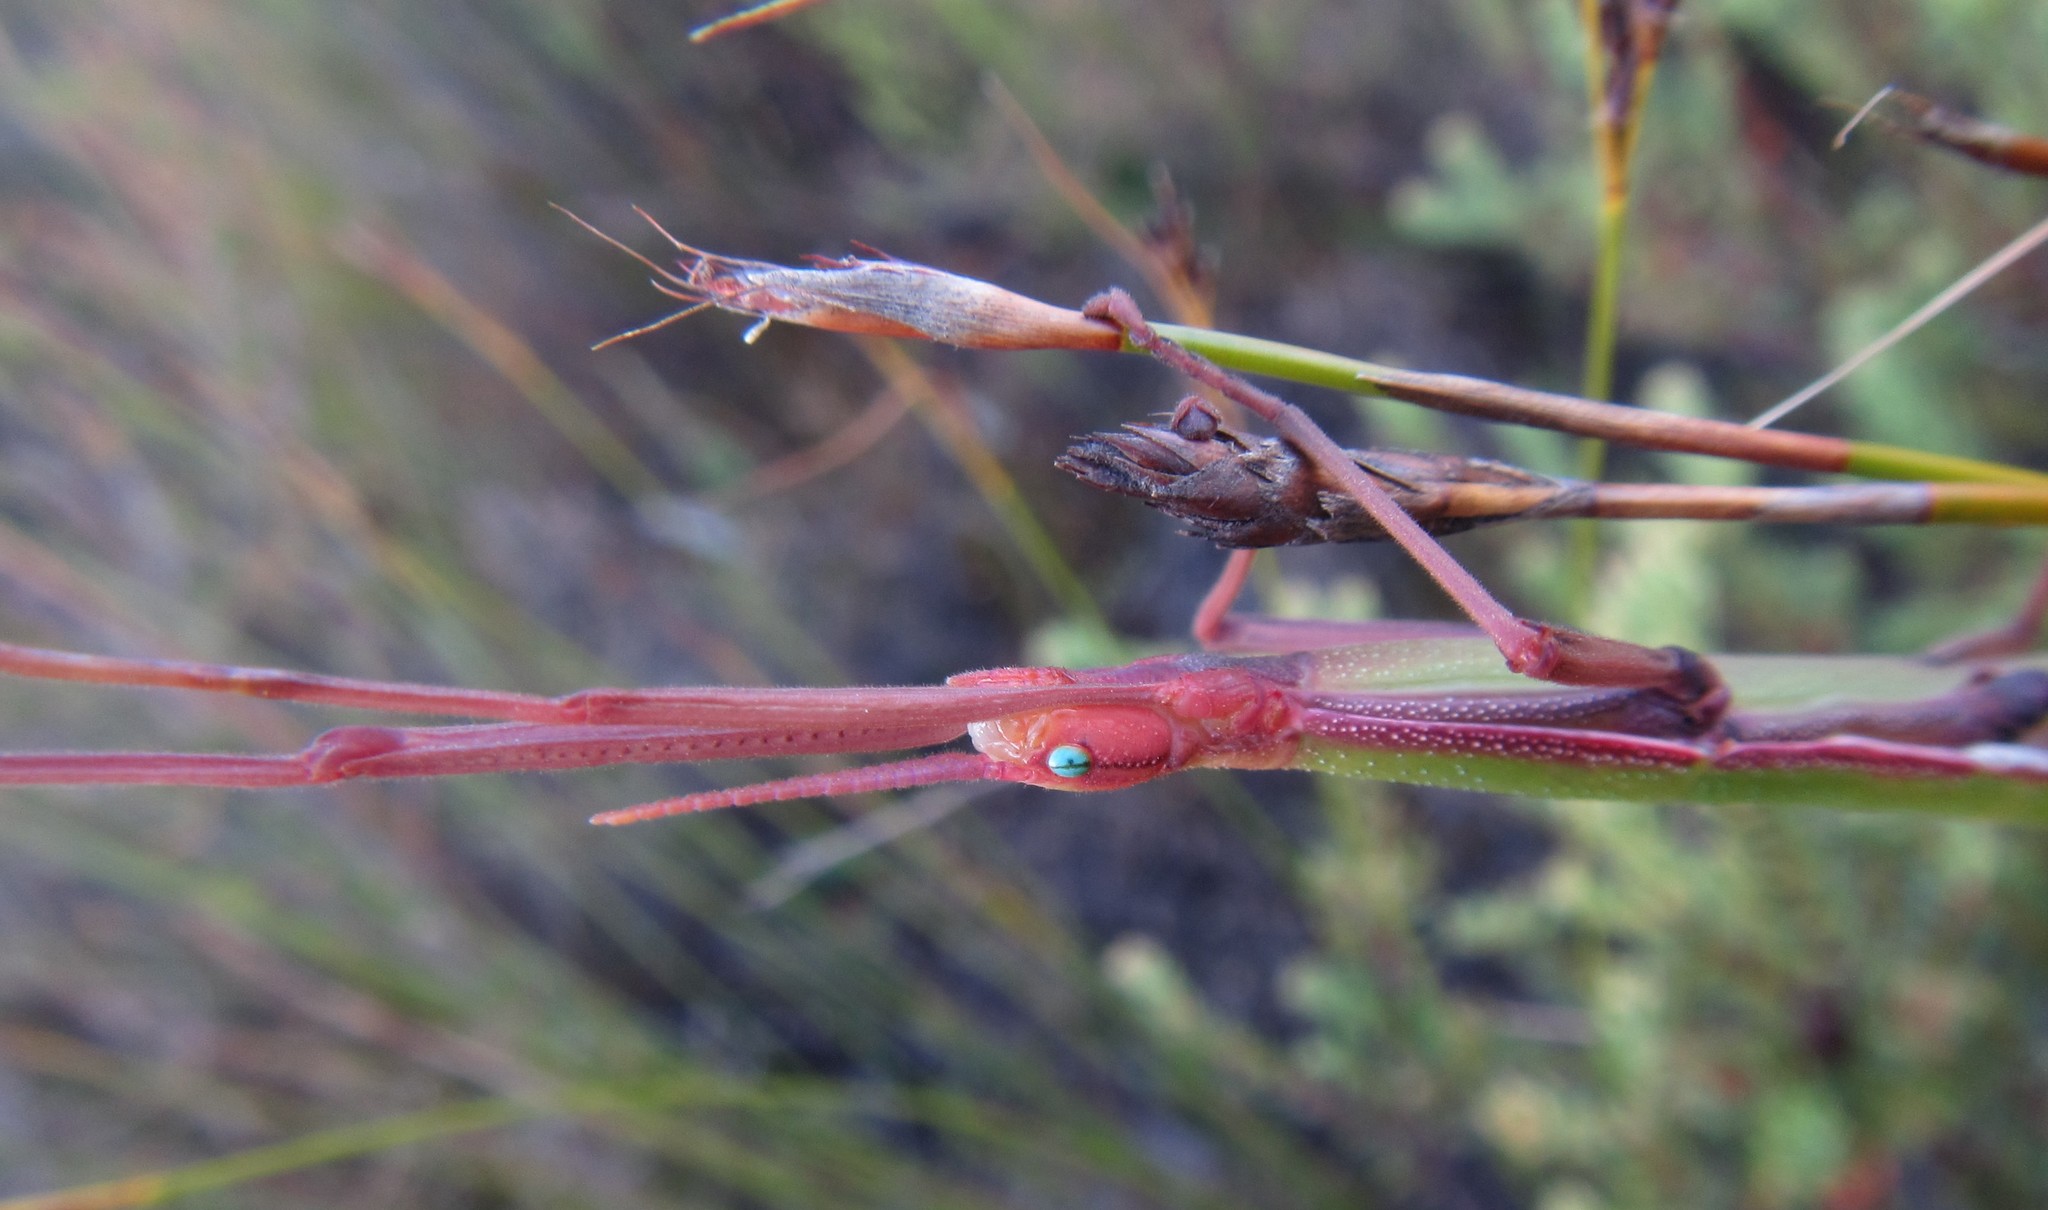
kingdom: Animalia
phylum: Arthropoda
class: Insecta
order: Phasmida
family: Bacillidae
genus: Macynia
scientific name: Macynia labiata
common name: Thunberg's stick insect
